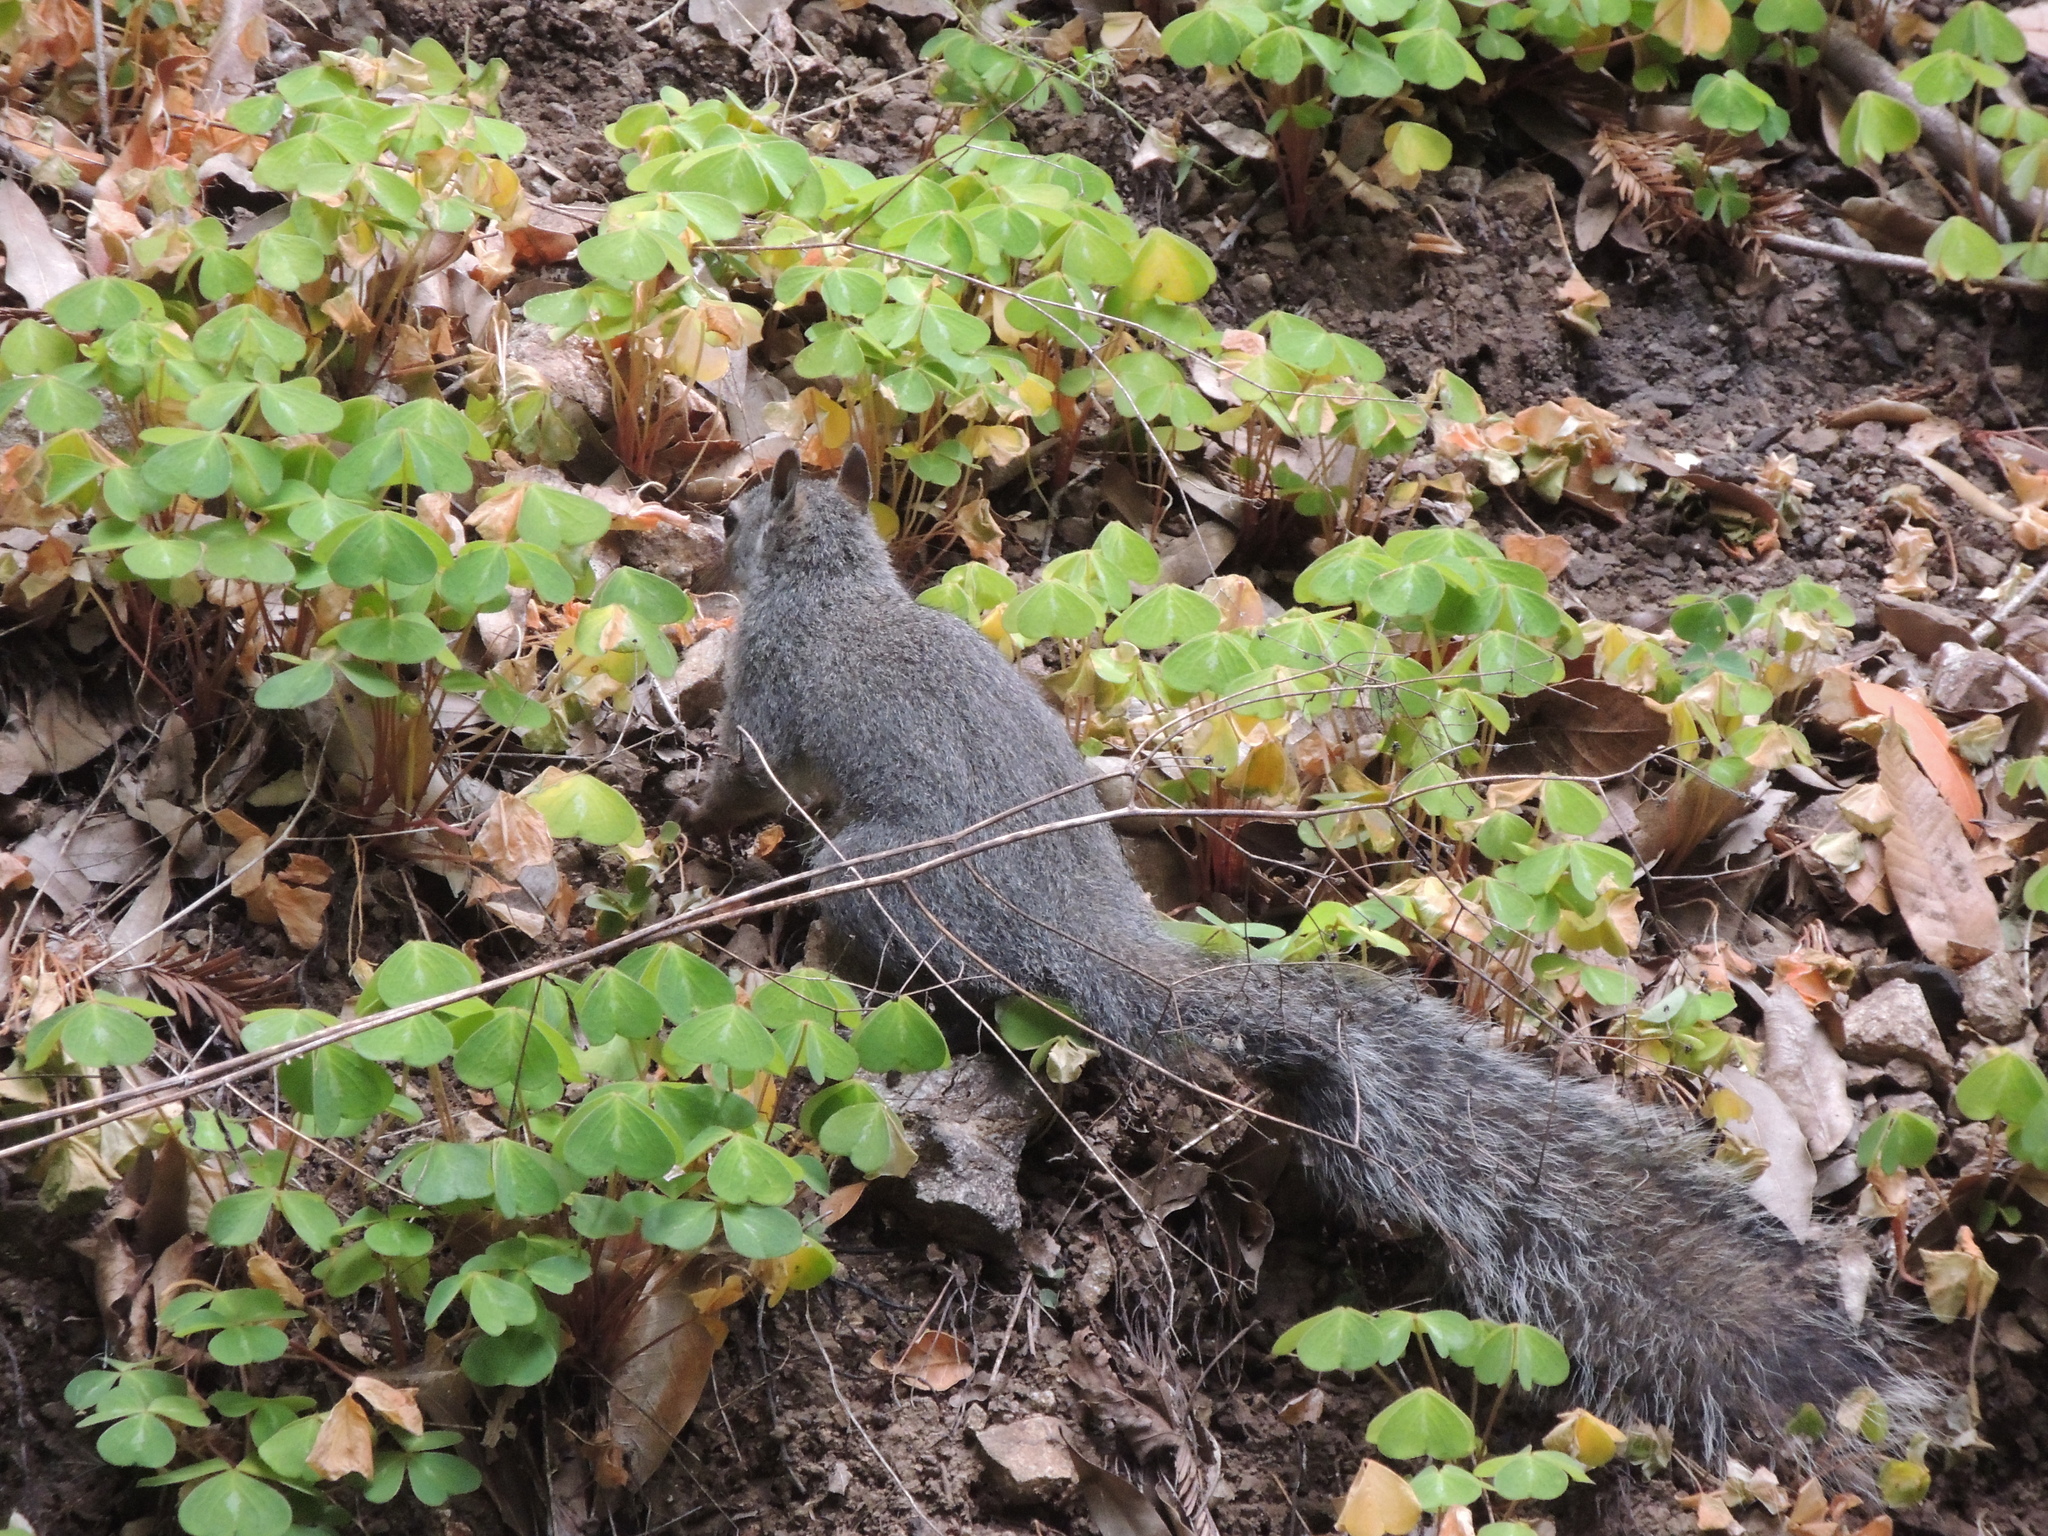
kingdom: Animalia
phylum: Chordata
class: Mammalia
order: Rodentia
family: Sciuridae
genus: Sciurus
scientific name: Sciurus griseus
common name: Western gray squirrel
